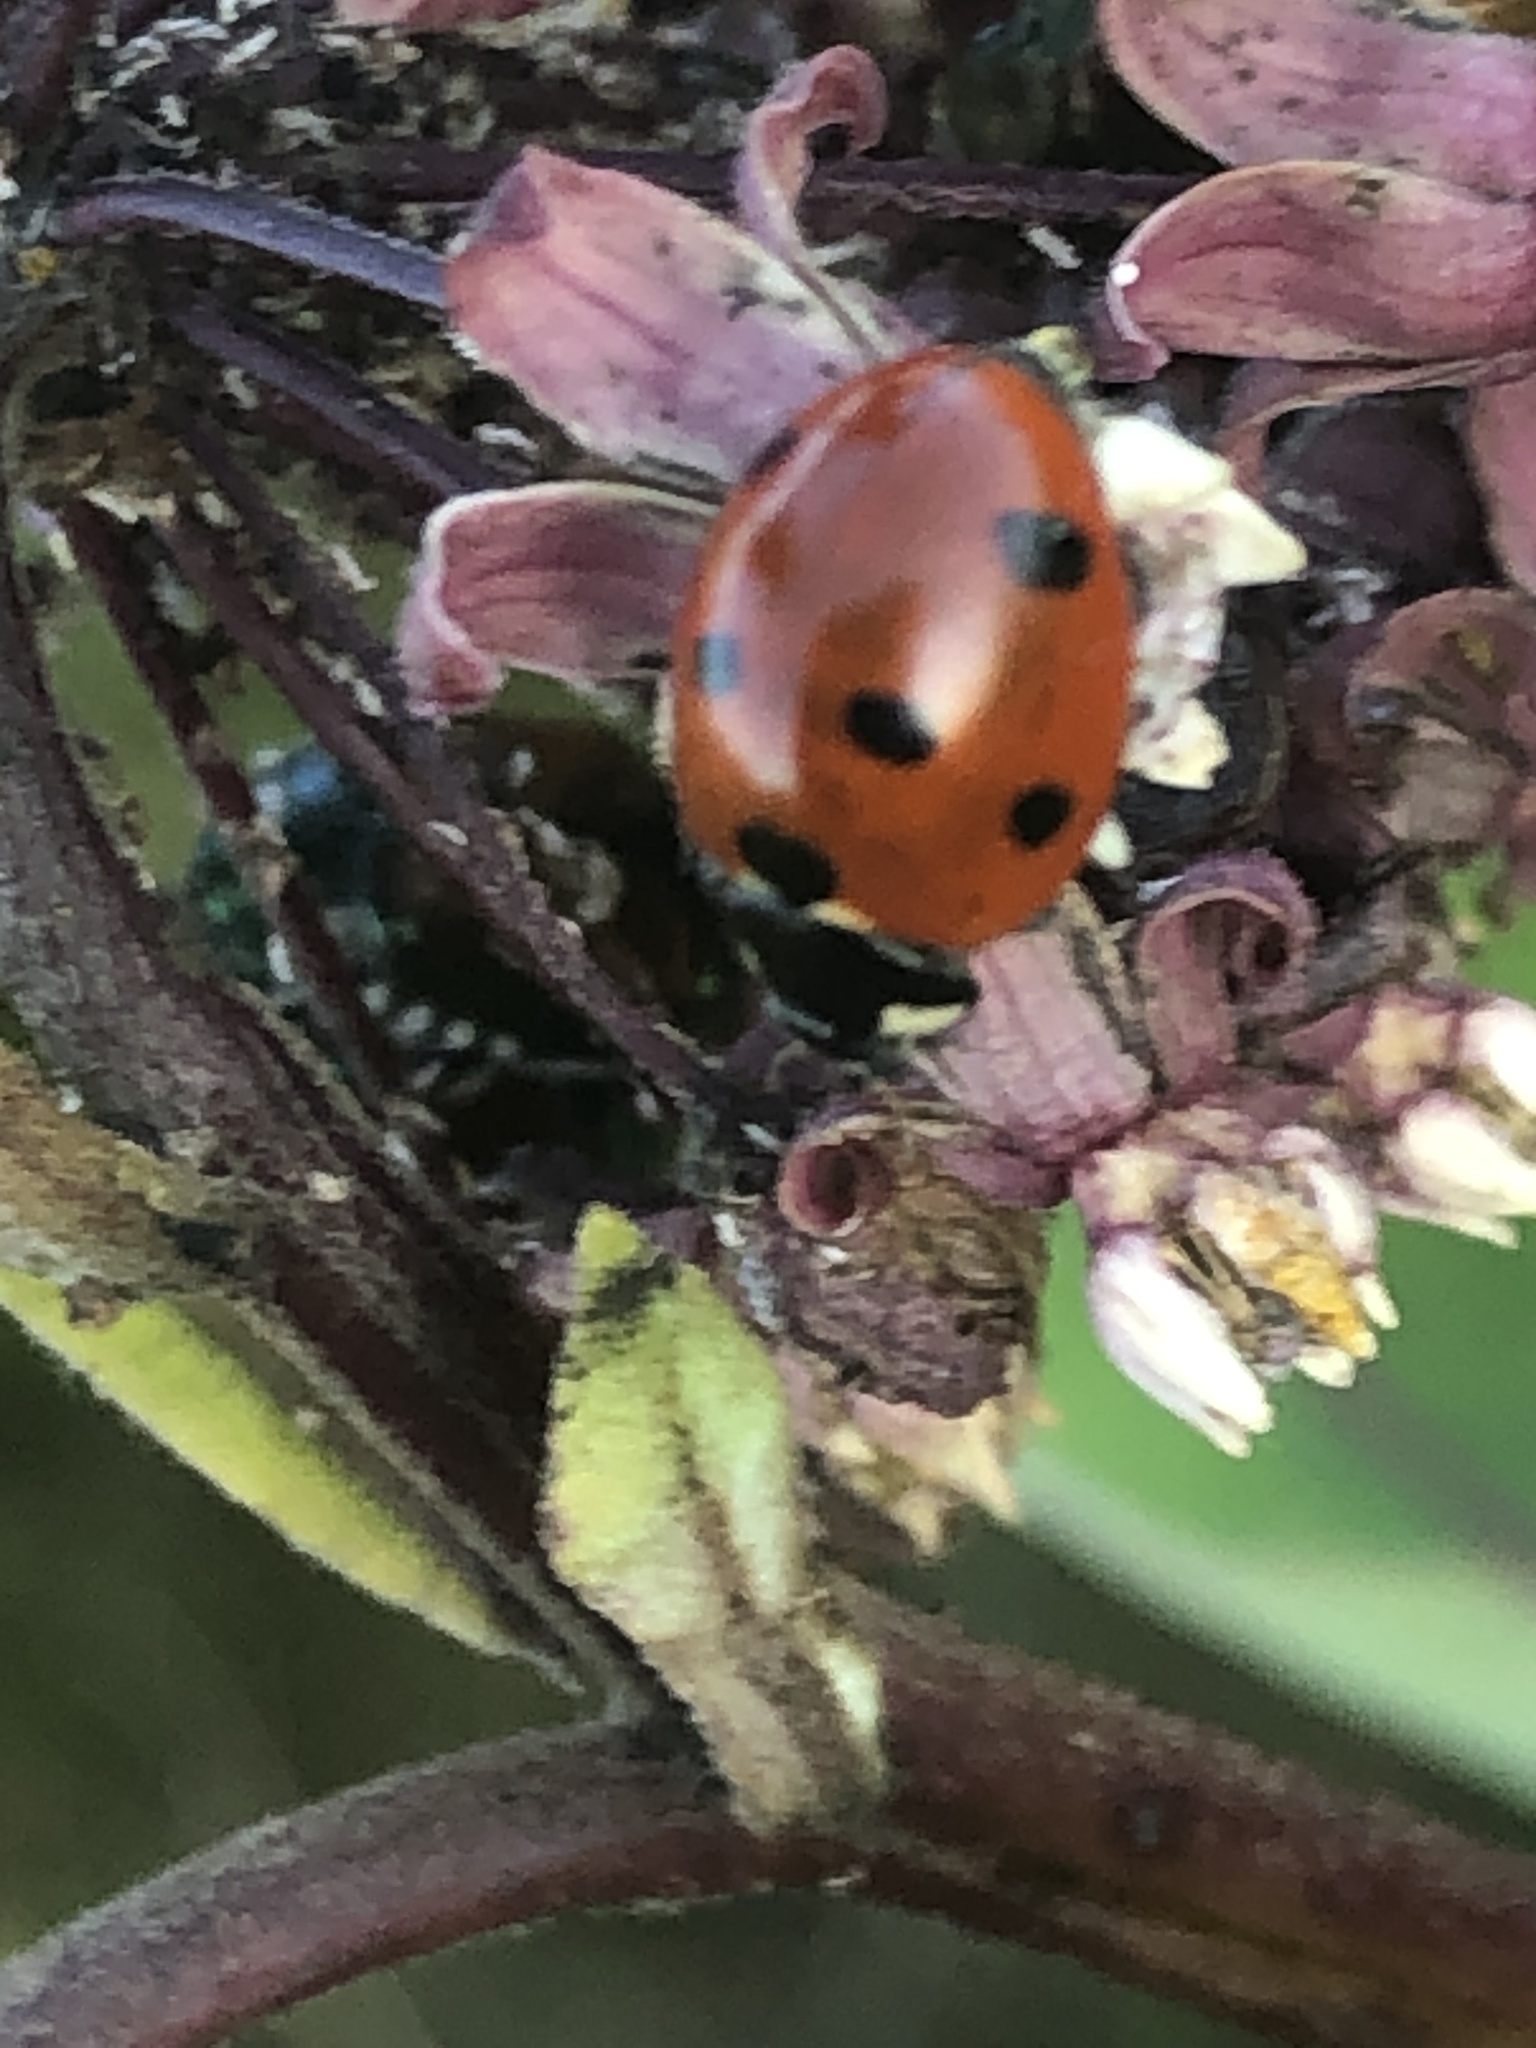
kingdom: Animalia
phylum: Arthropoda
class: Insecta
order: Coleoptera
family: Coccinellidae
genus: Coccinella
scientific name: Coccinella septempunctata
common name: Sevenspotted lady beetle
